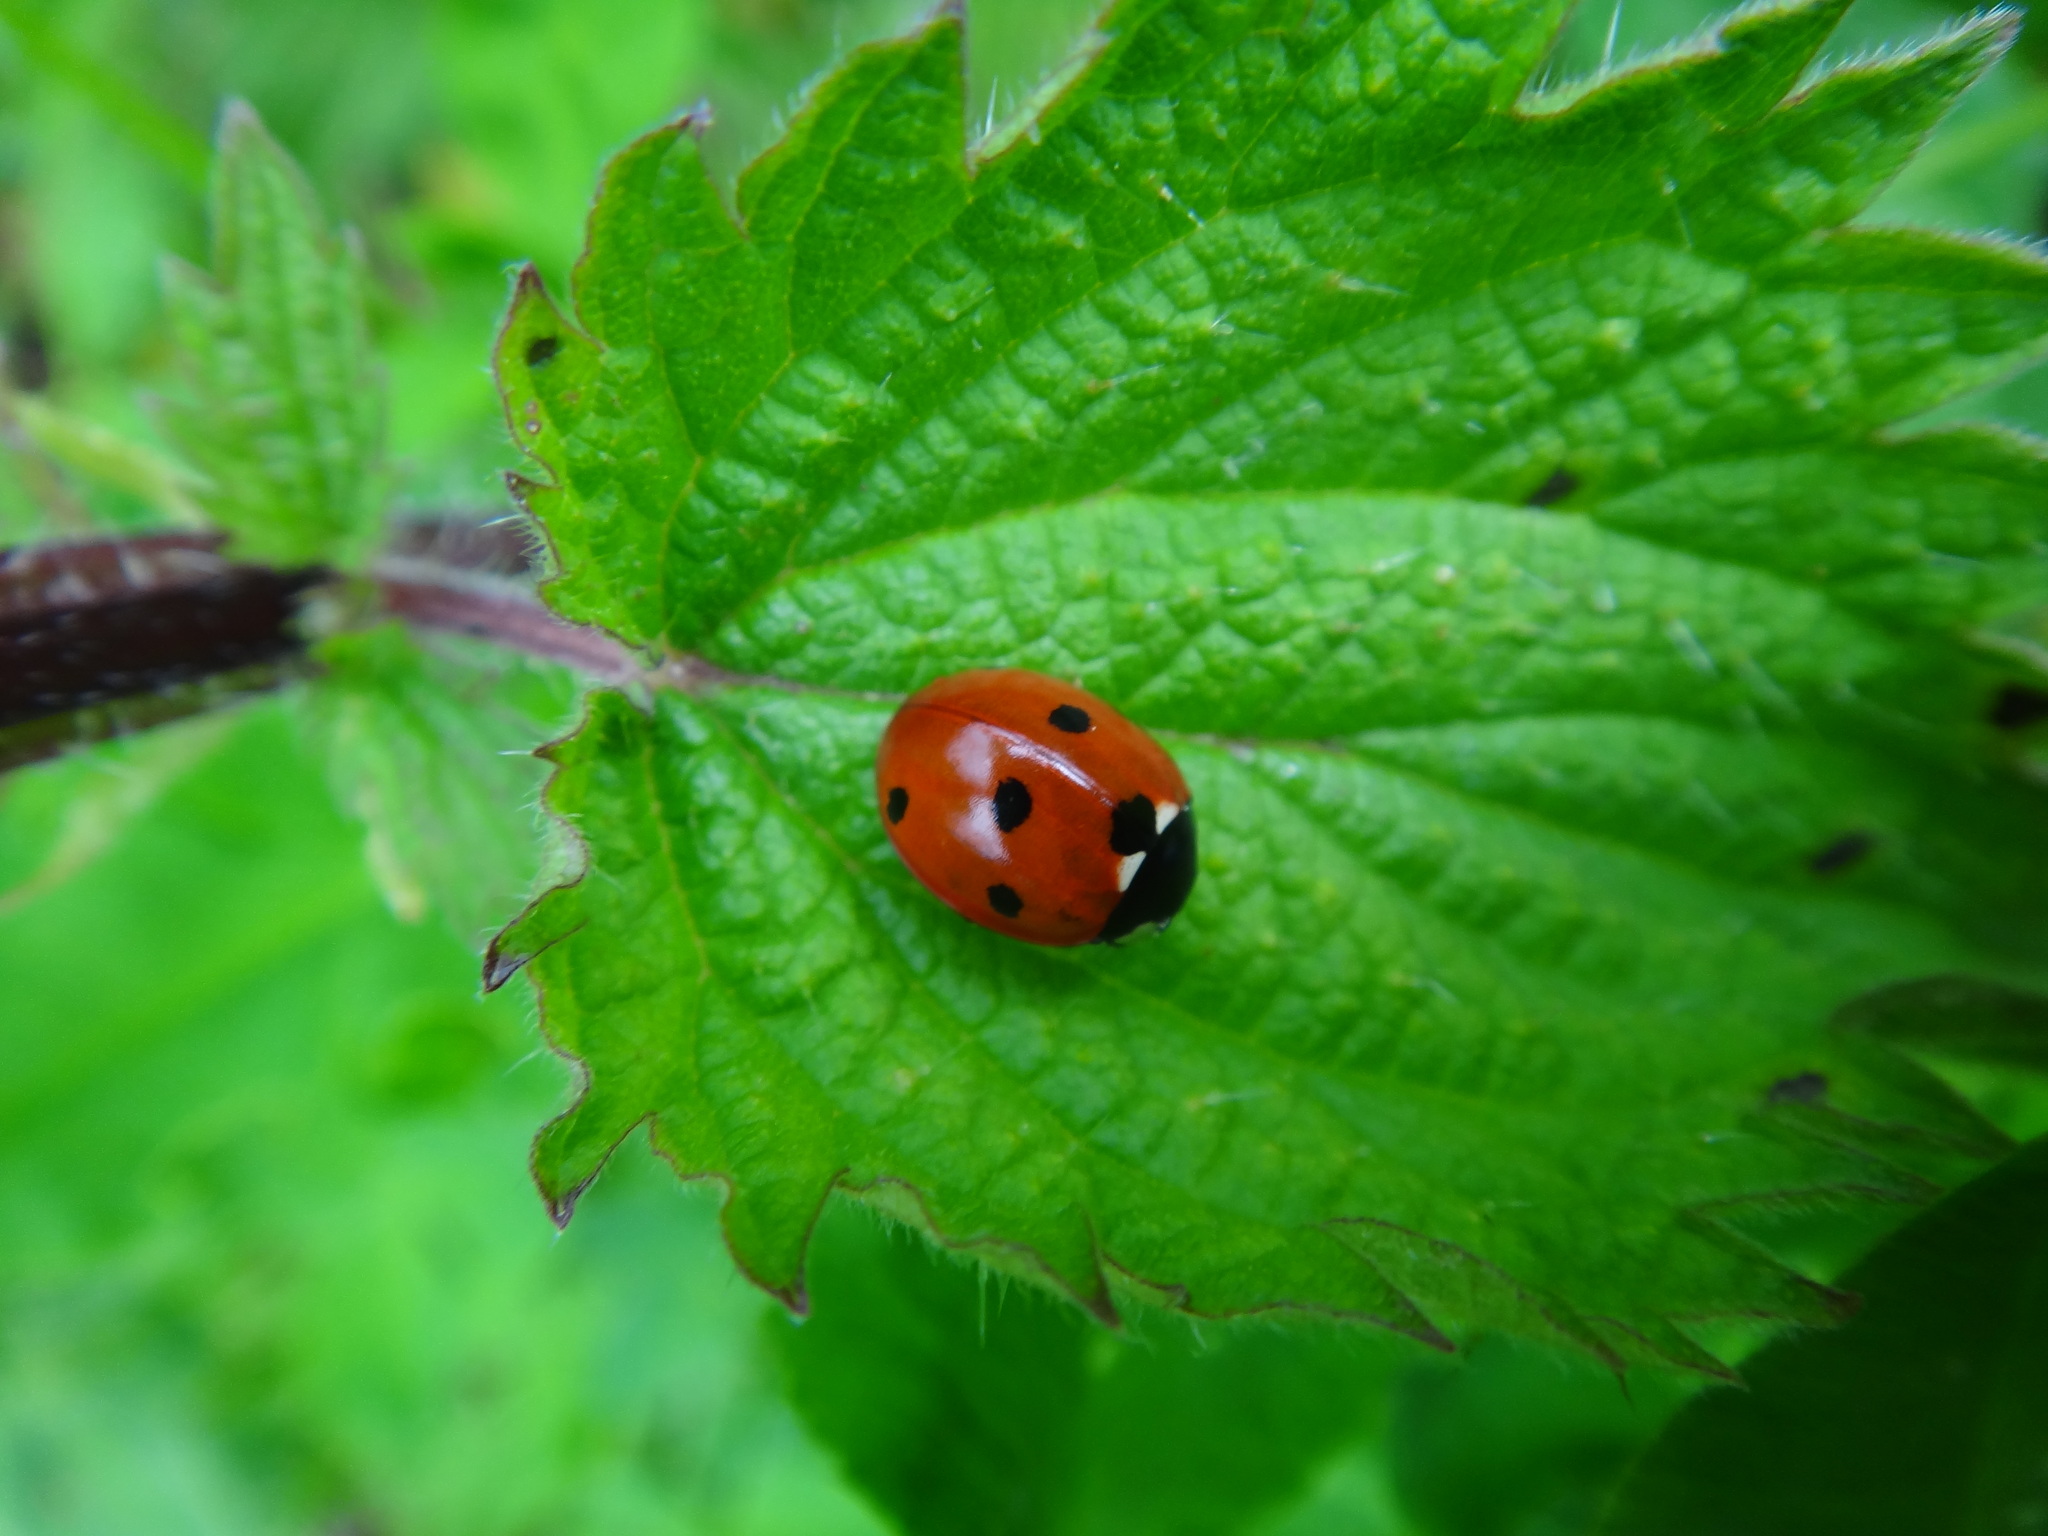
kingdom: Animalia
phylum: Arthropoda
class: Insecta
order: Coleoptera
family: Coccinellidae
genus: Coccinella
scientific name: Coccinella septempunctata
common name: Sevenspotted lady beetle
